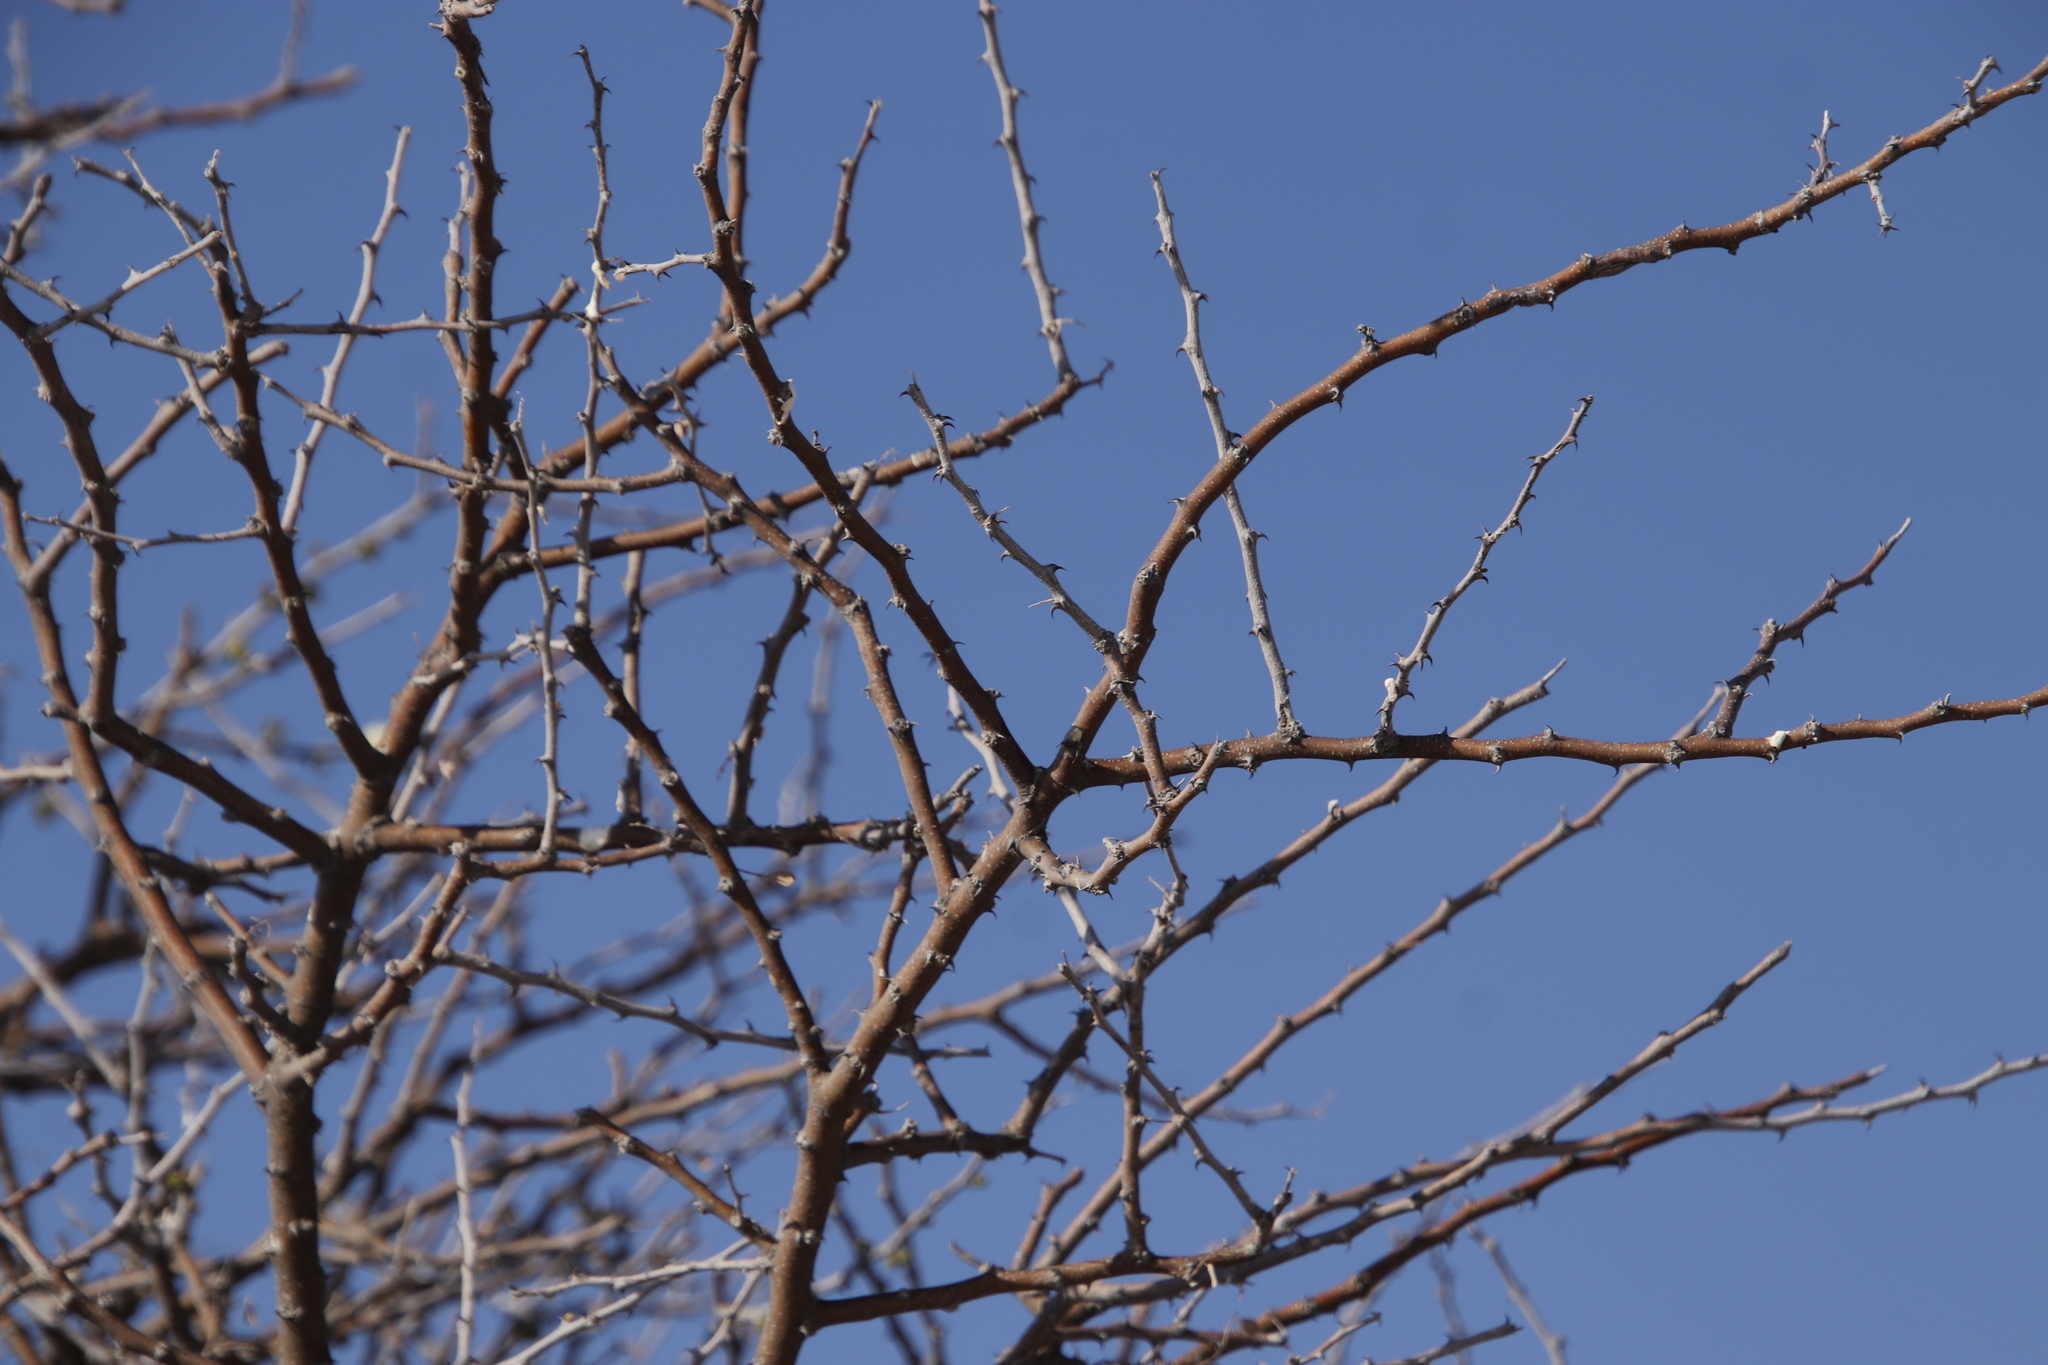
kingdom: Plantae
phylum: Tracheophyta
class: Magnoliopsida
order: Fabales
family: Fabaceae
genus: Senegalia
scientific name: Senegalia mellifera
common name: Hookthorn
